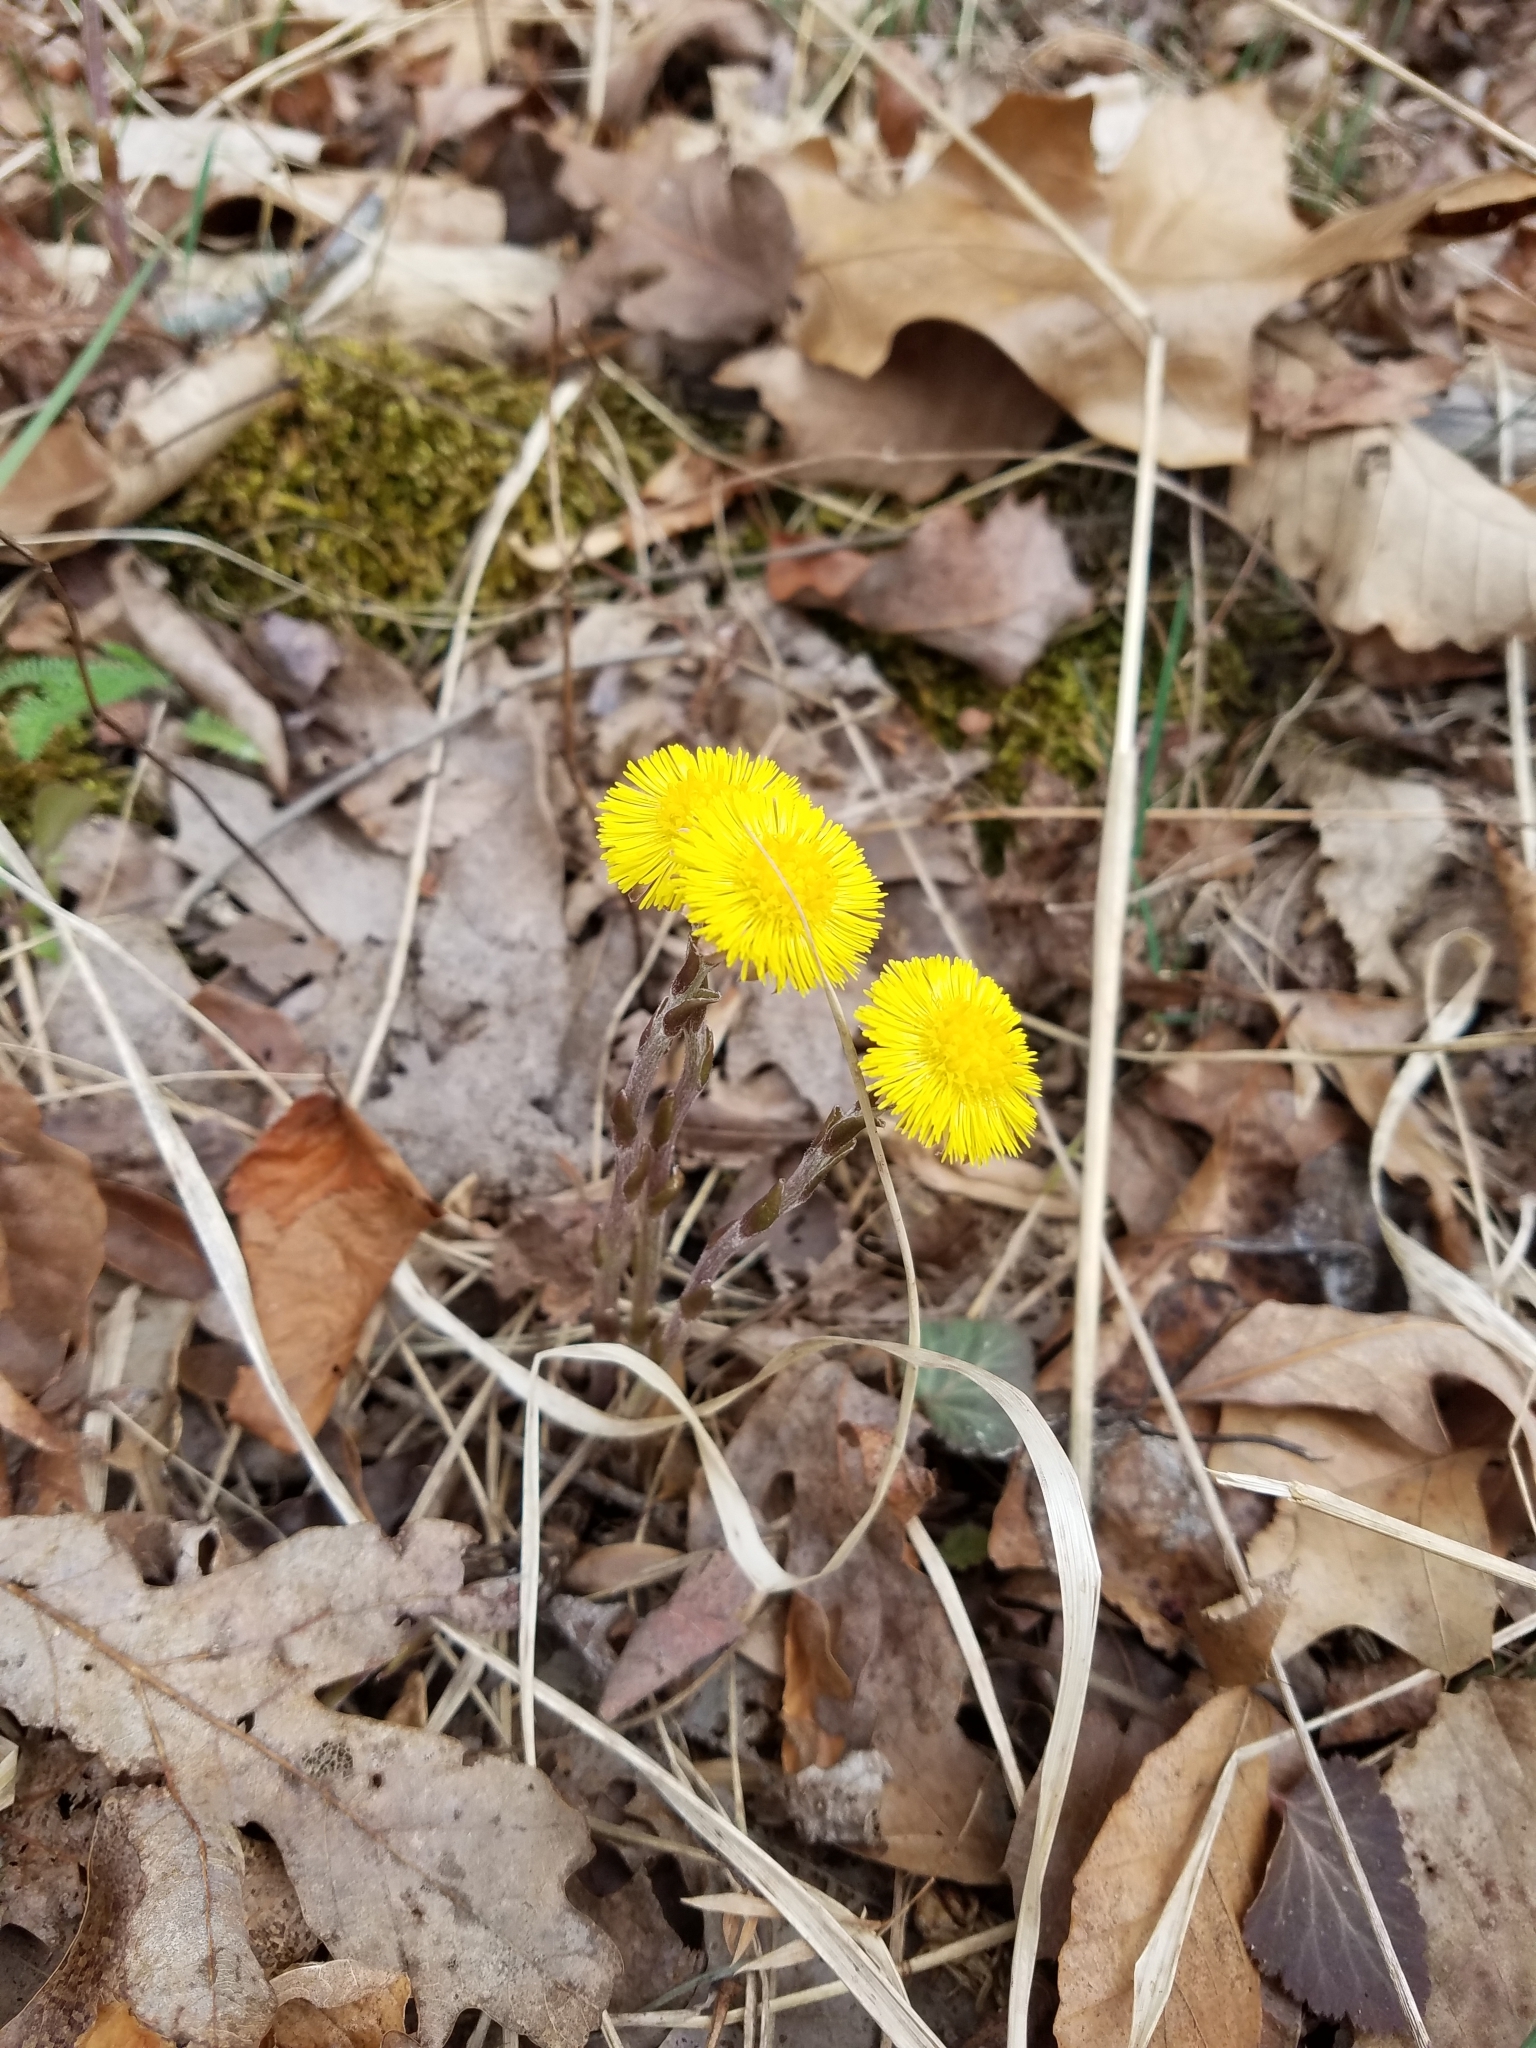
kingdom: Plantae
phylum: Tracheophyta
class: Magnoliopsida
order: Asterales
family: Asteraceae
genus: Tussilago
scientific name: Tussilago farfara
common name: Coltsfoot
